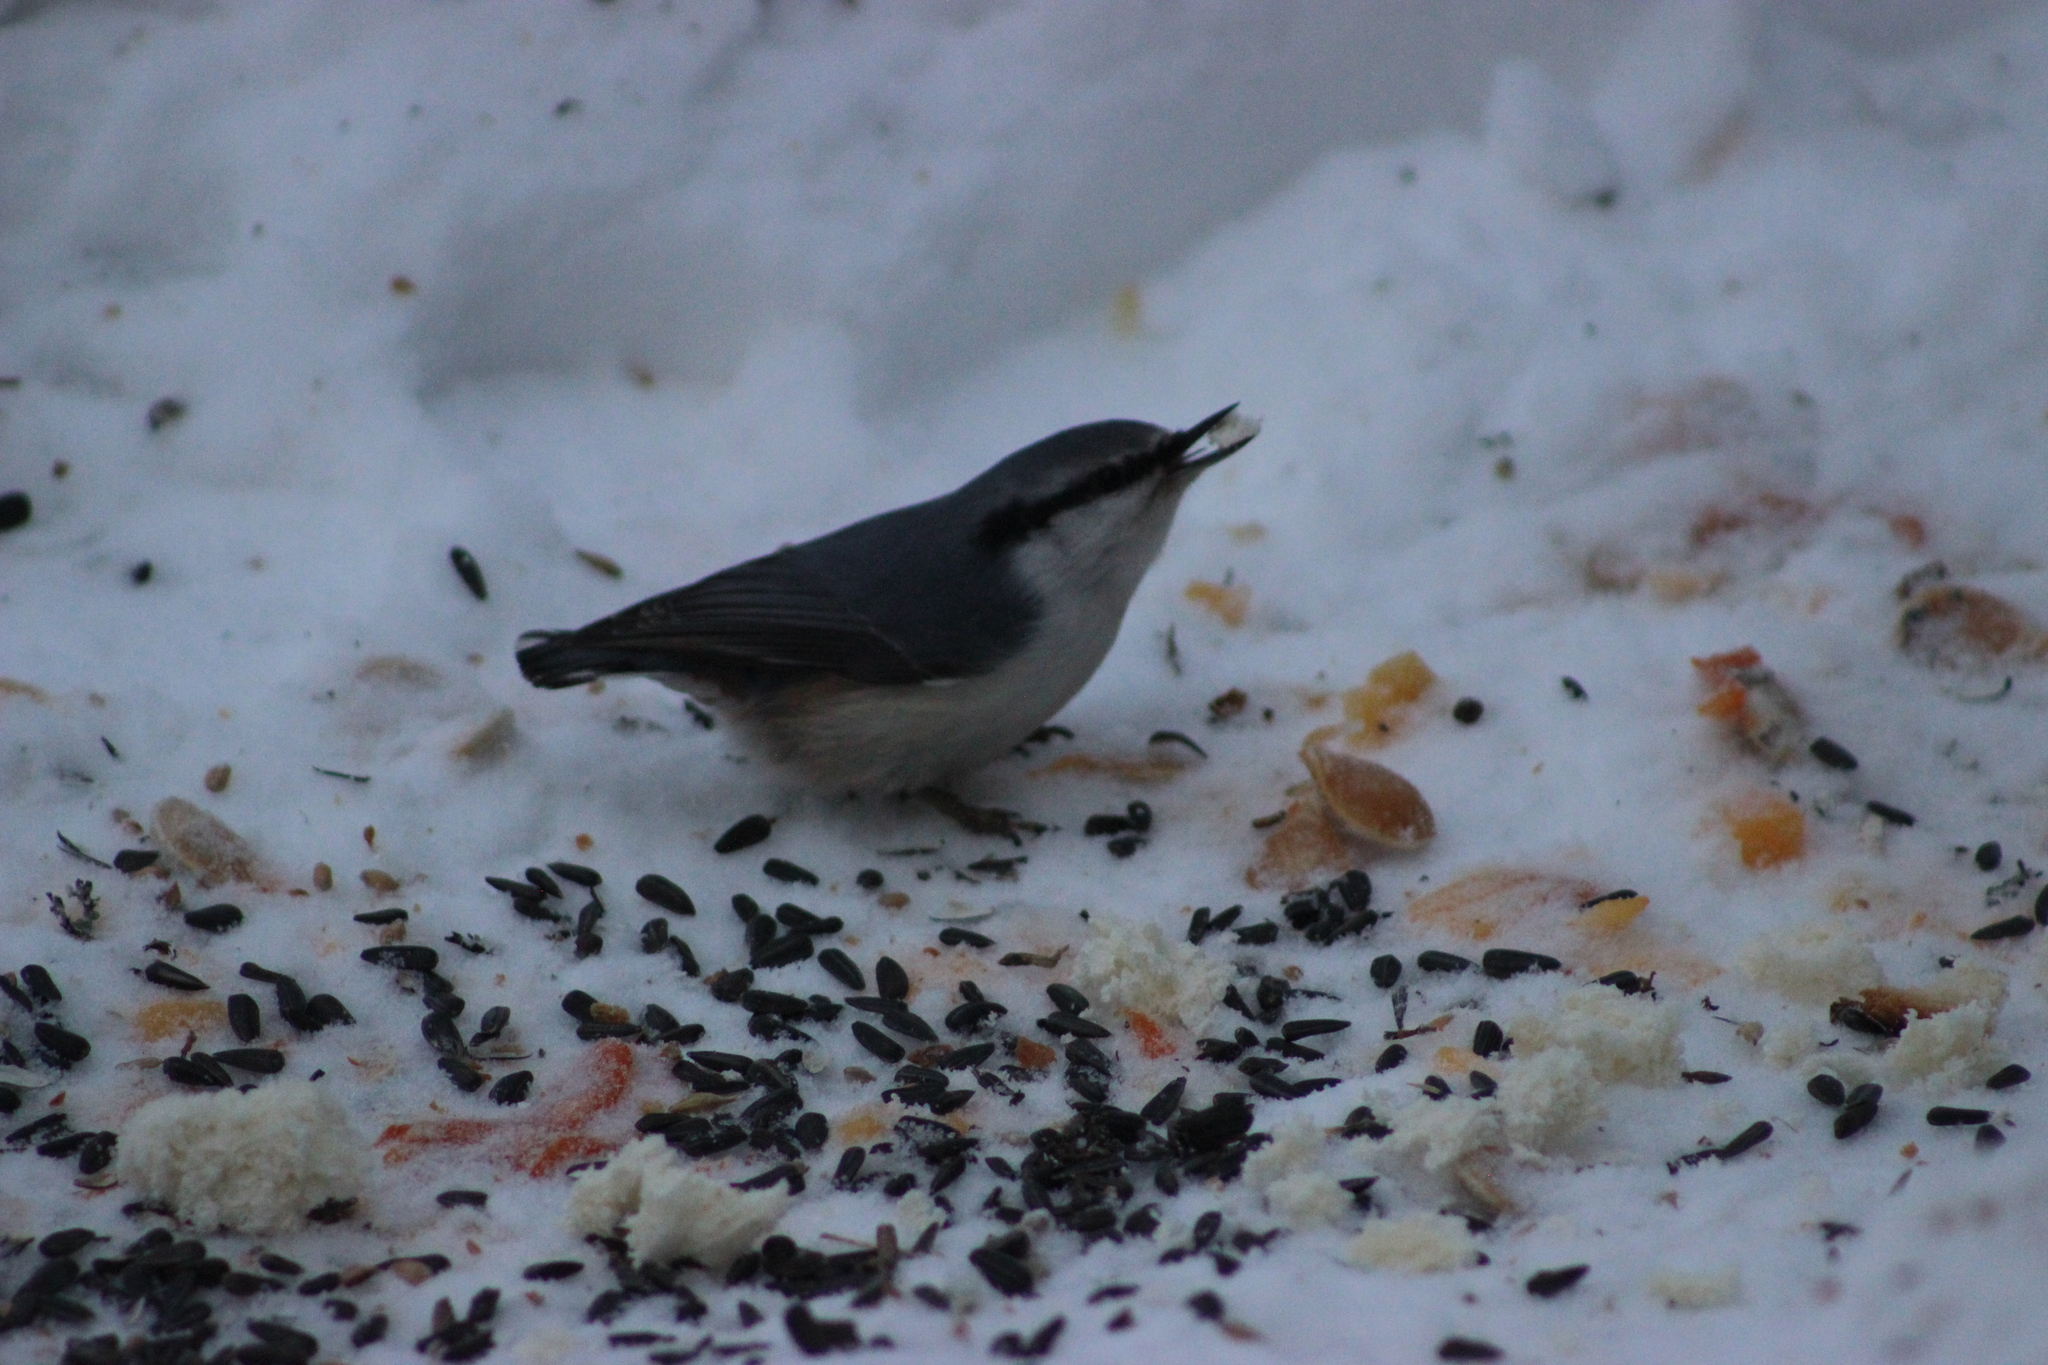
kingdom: Animalia
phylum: Chordata
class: Aves
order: Passeriformes
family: Sittidae
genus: Sitta
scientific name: Sitta europaea
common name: Eurasian nuthatch
